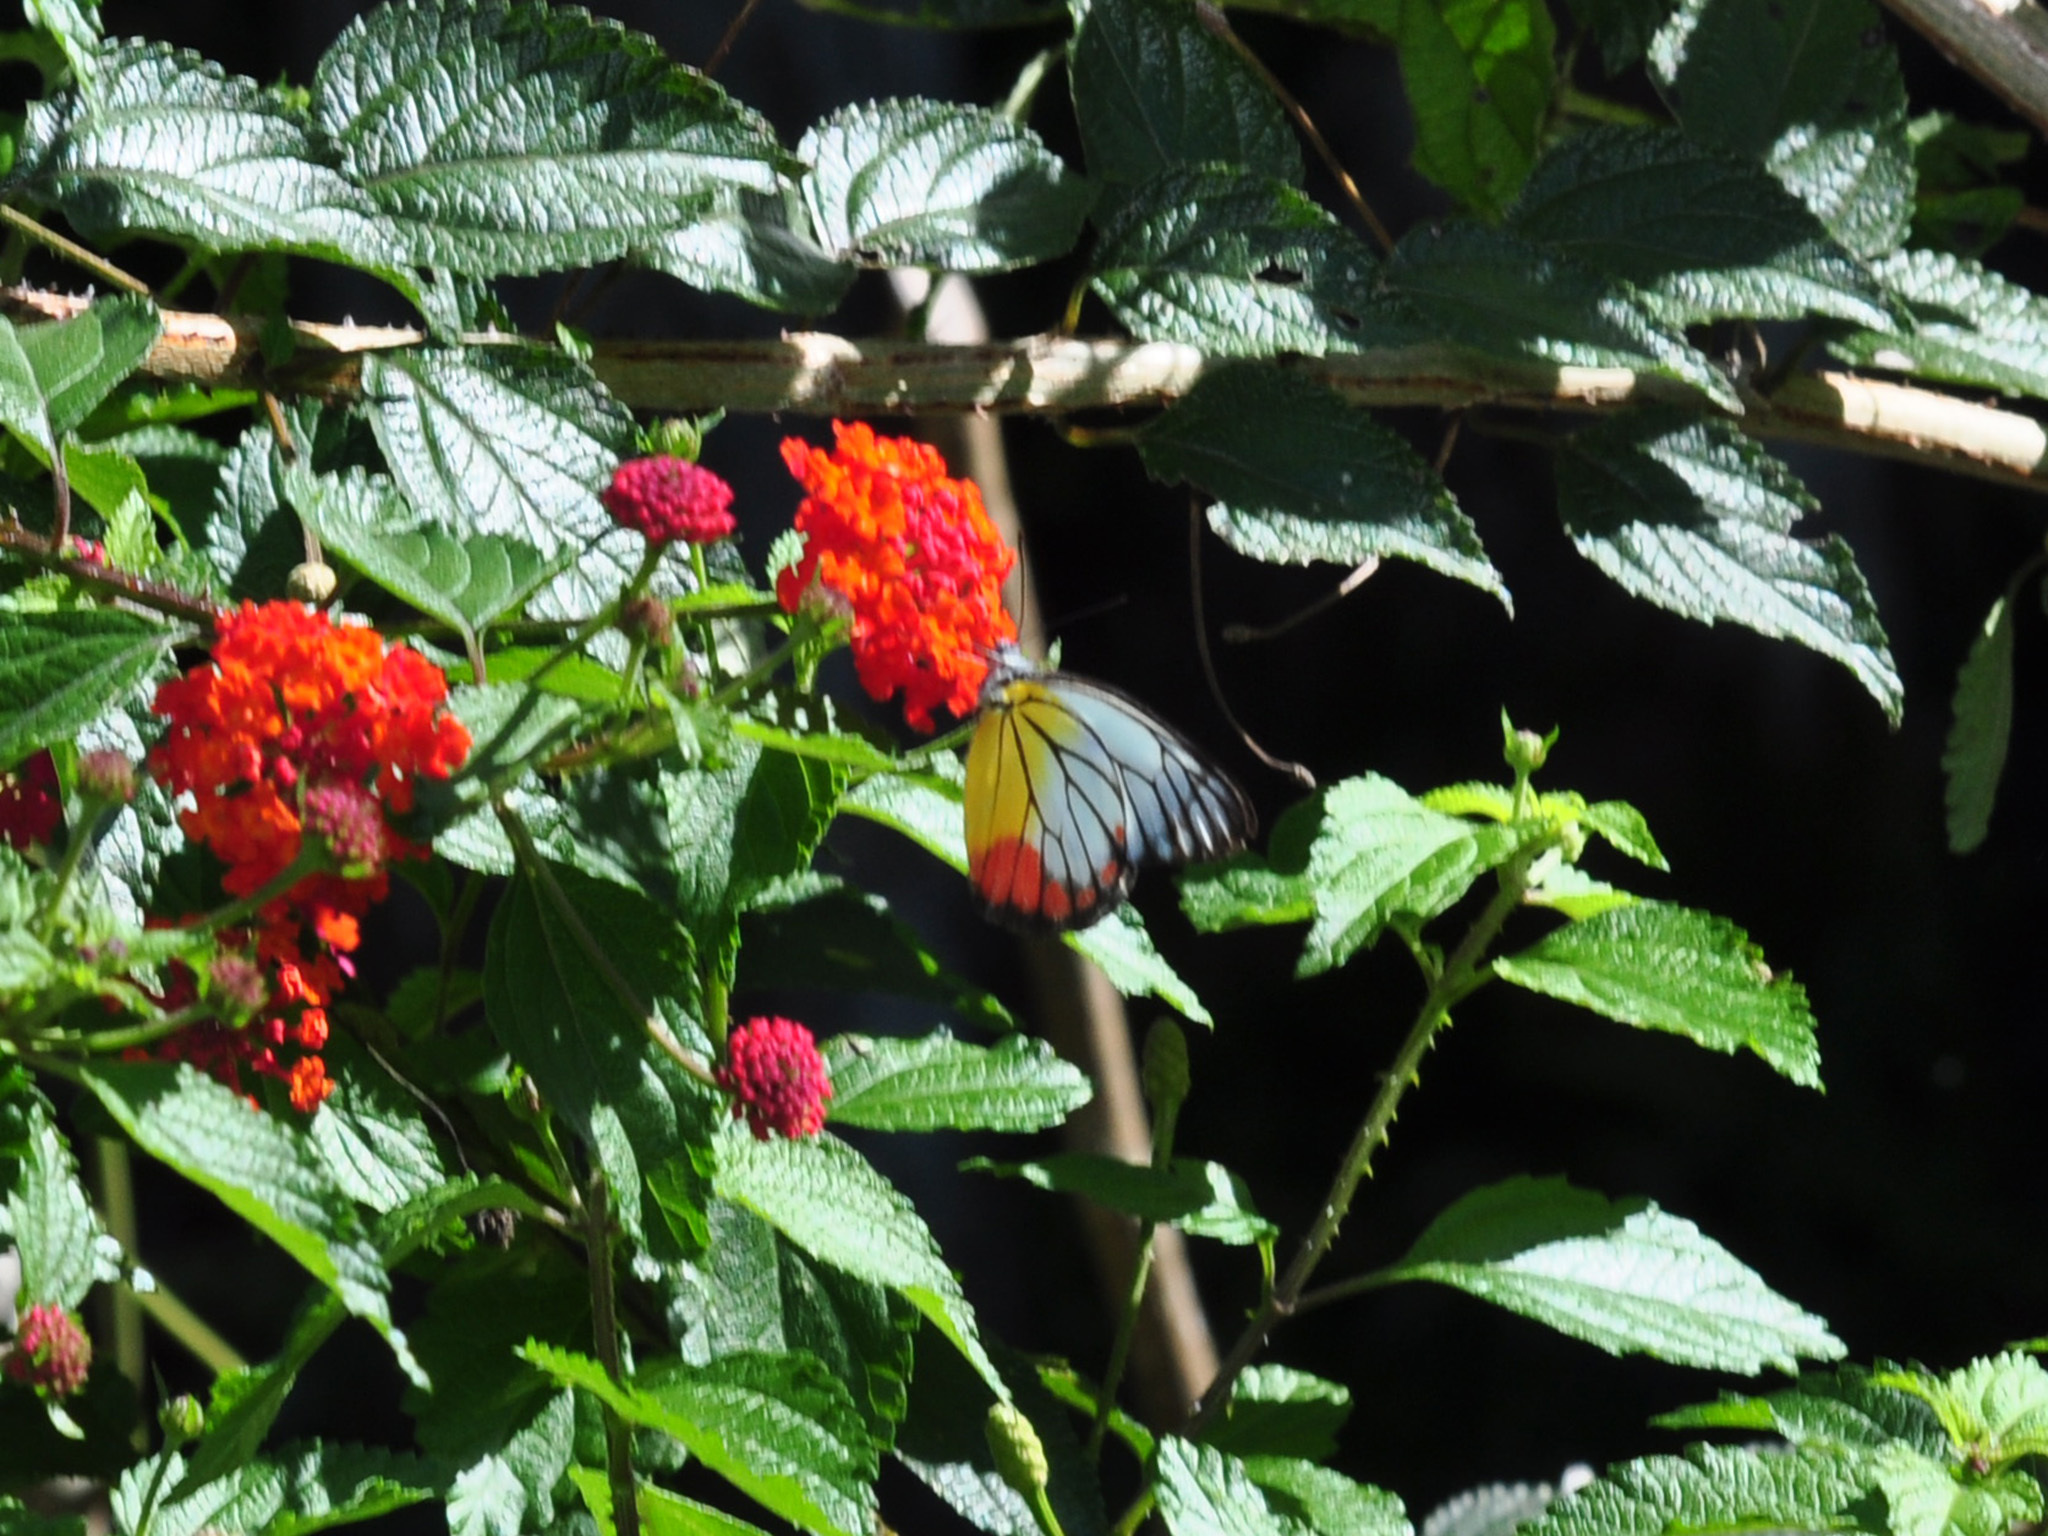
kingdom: Animalia
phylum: Arthropoda
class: Insecta
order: Lepidoptera
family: Pieridae
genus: Delias
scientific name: Delias hyparete
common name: Painted jezebel
